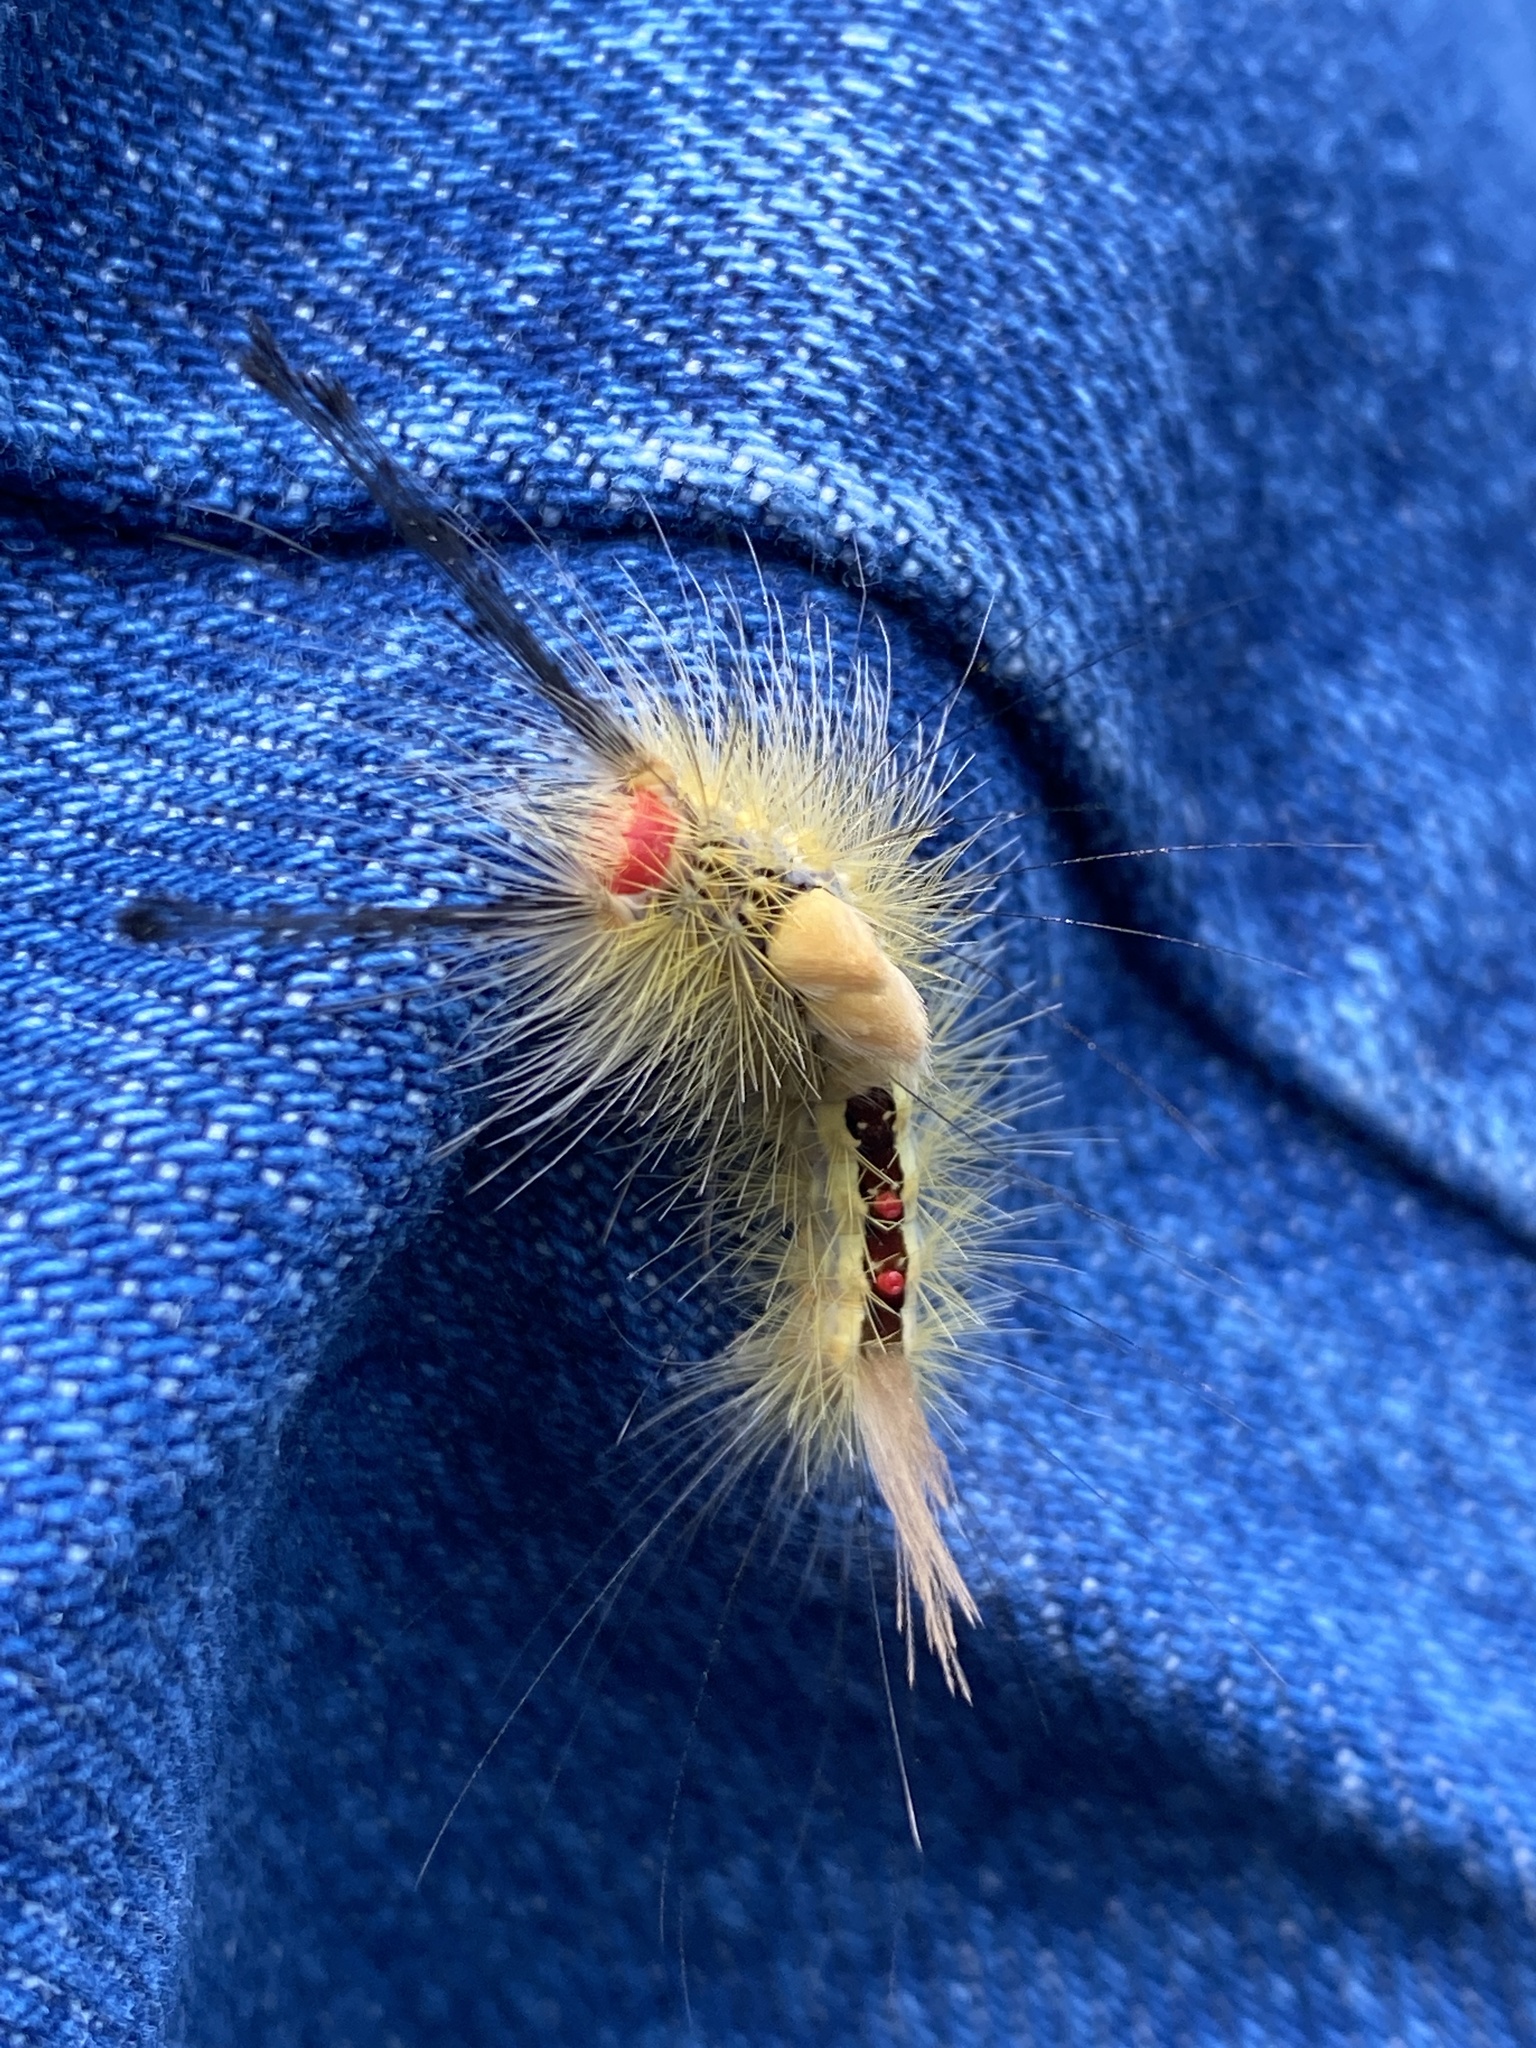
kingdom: Animalia
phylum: Arthropoda
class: Insecta
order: Lepidoptera
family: Erebidae
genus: Orgyia
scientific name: Orgyia leucostigma
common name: White-marked tussock moth
